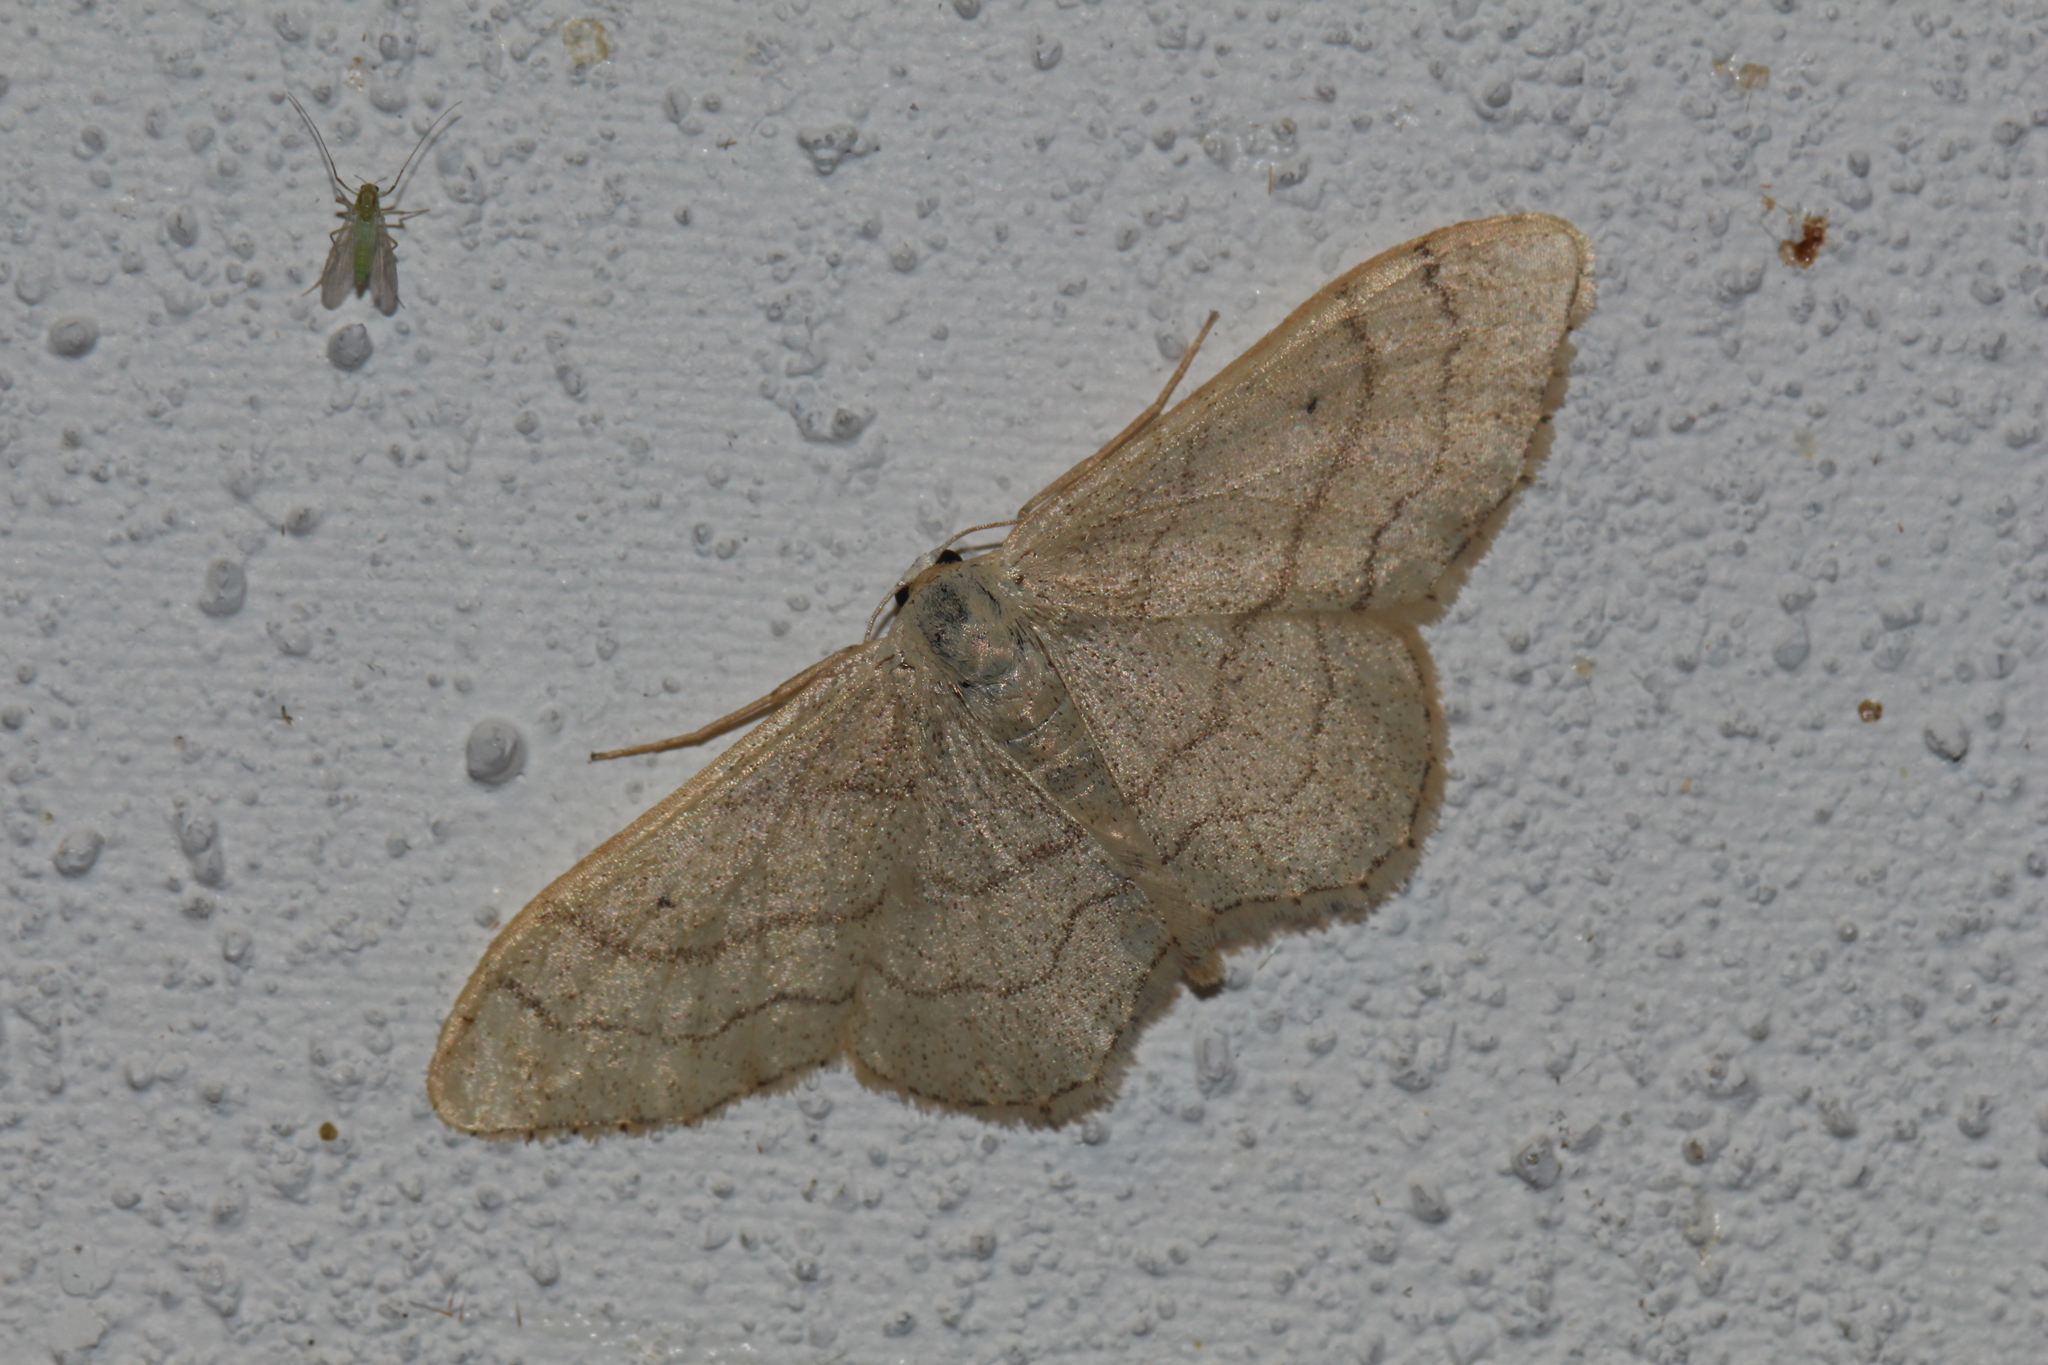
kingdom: Animalia
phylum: Arthropoda
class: Insecta
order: Lepidoptera
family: Geometridae
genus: Idaea
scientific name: Idaea aversata
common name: Riband wave
